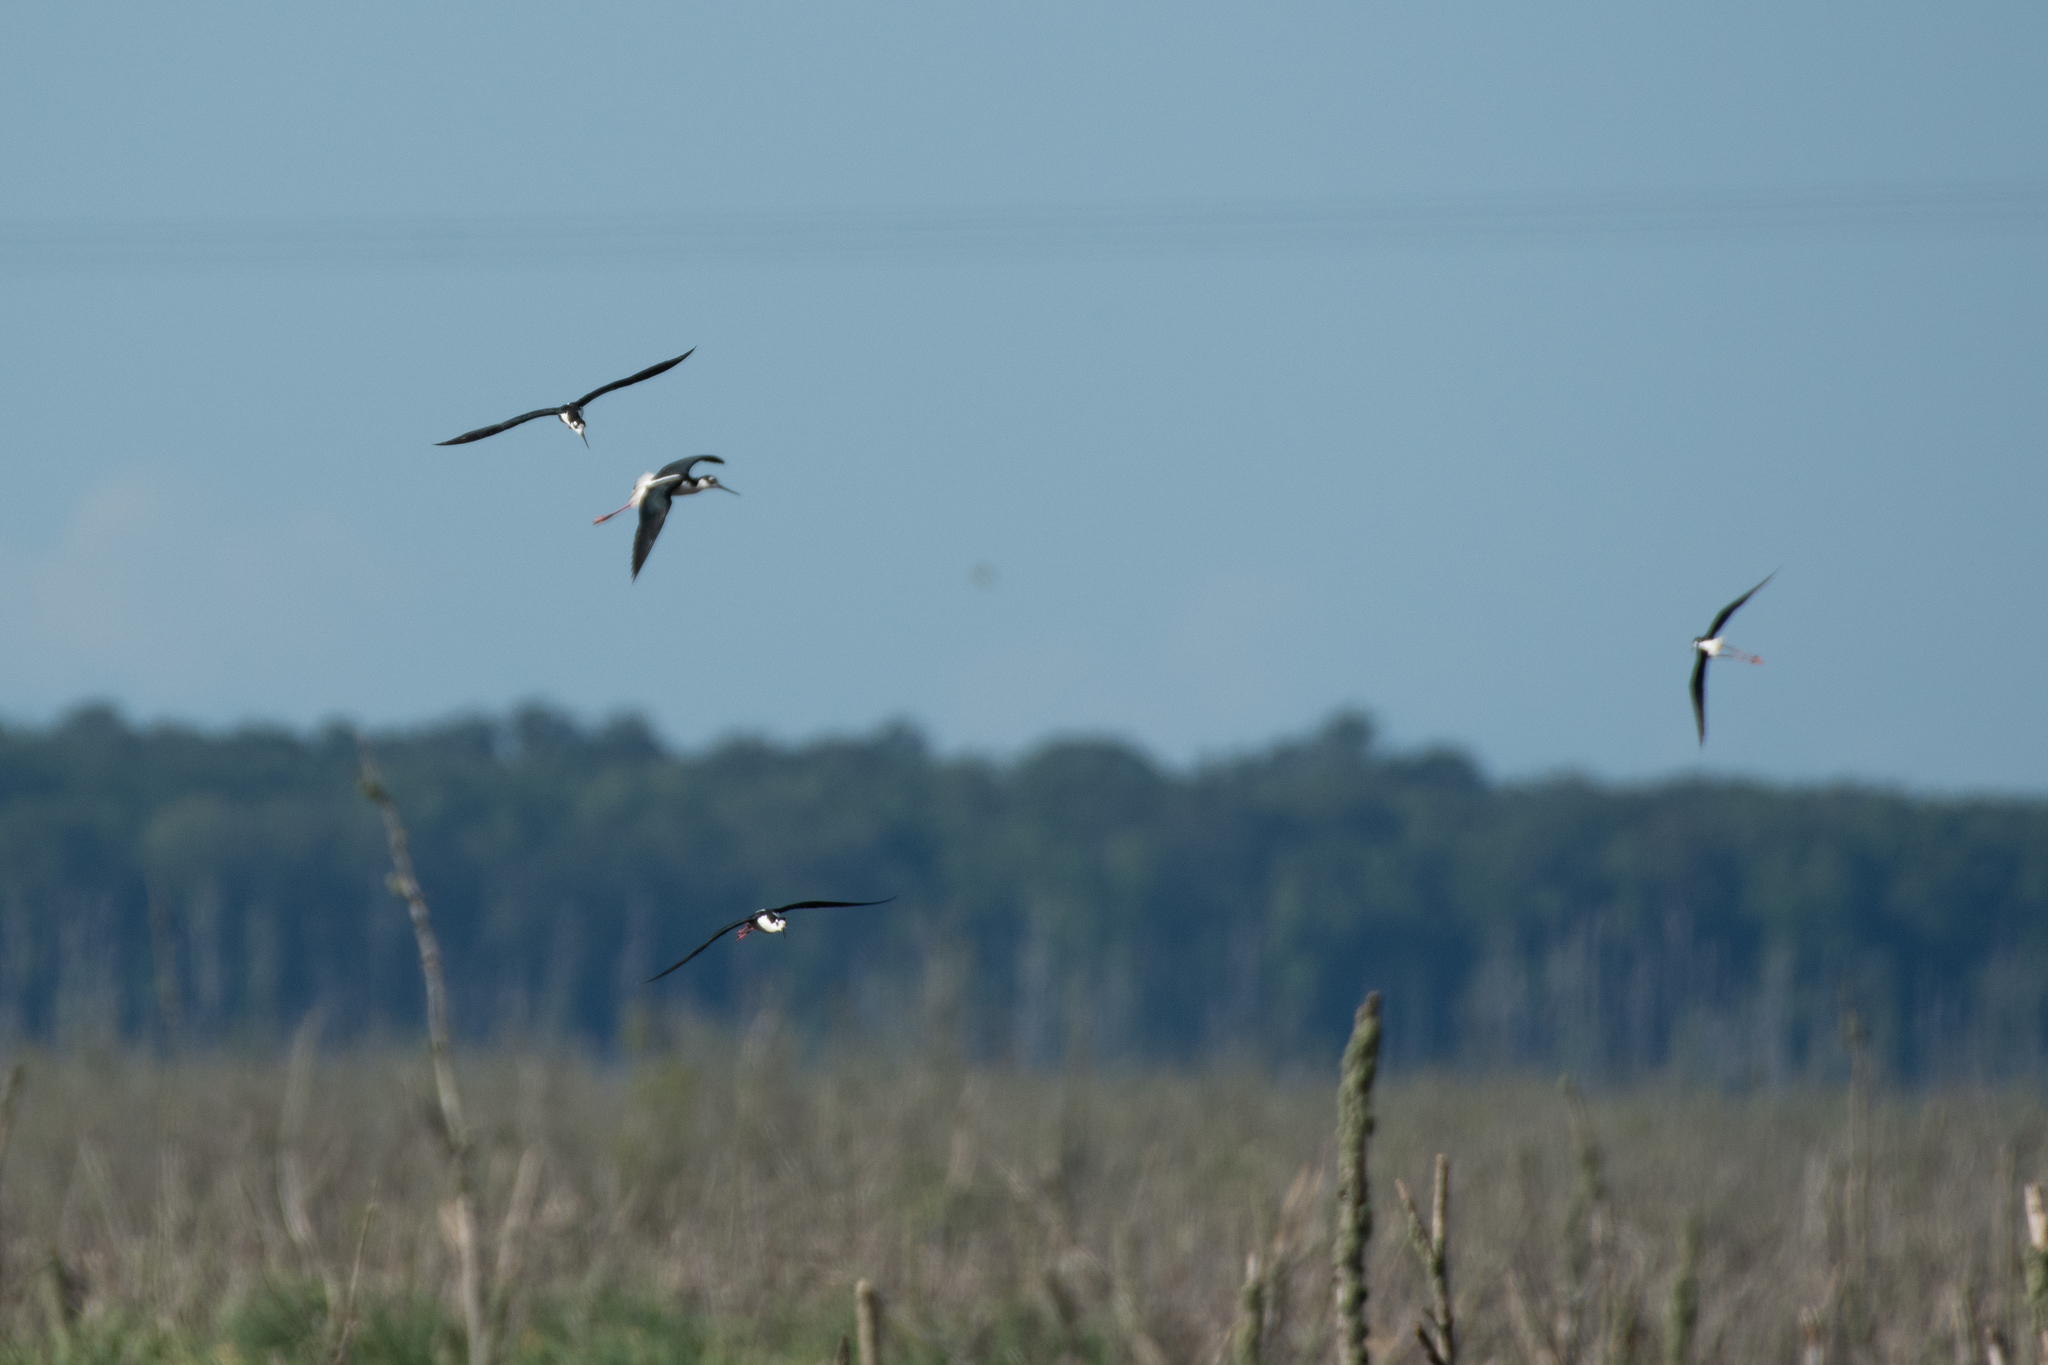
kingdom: Animalia
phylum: Chordata
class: Aves
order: Charadriiformes
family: Recurvirostridae
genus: Himantopus
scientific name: Himantopus mexicanus
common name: Black-necked stilt
